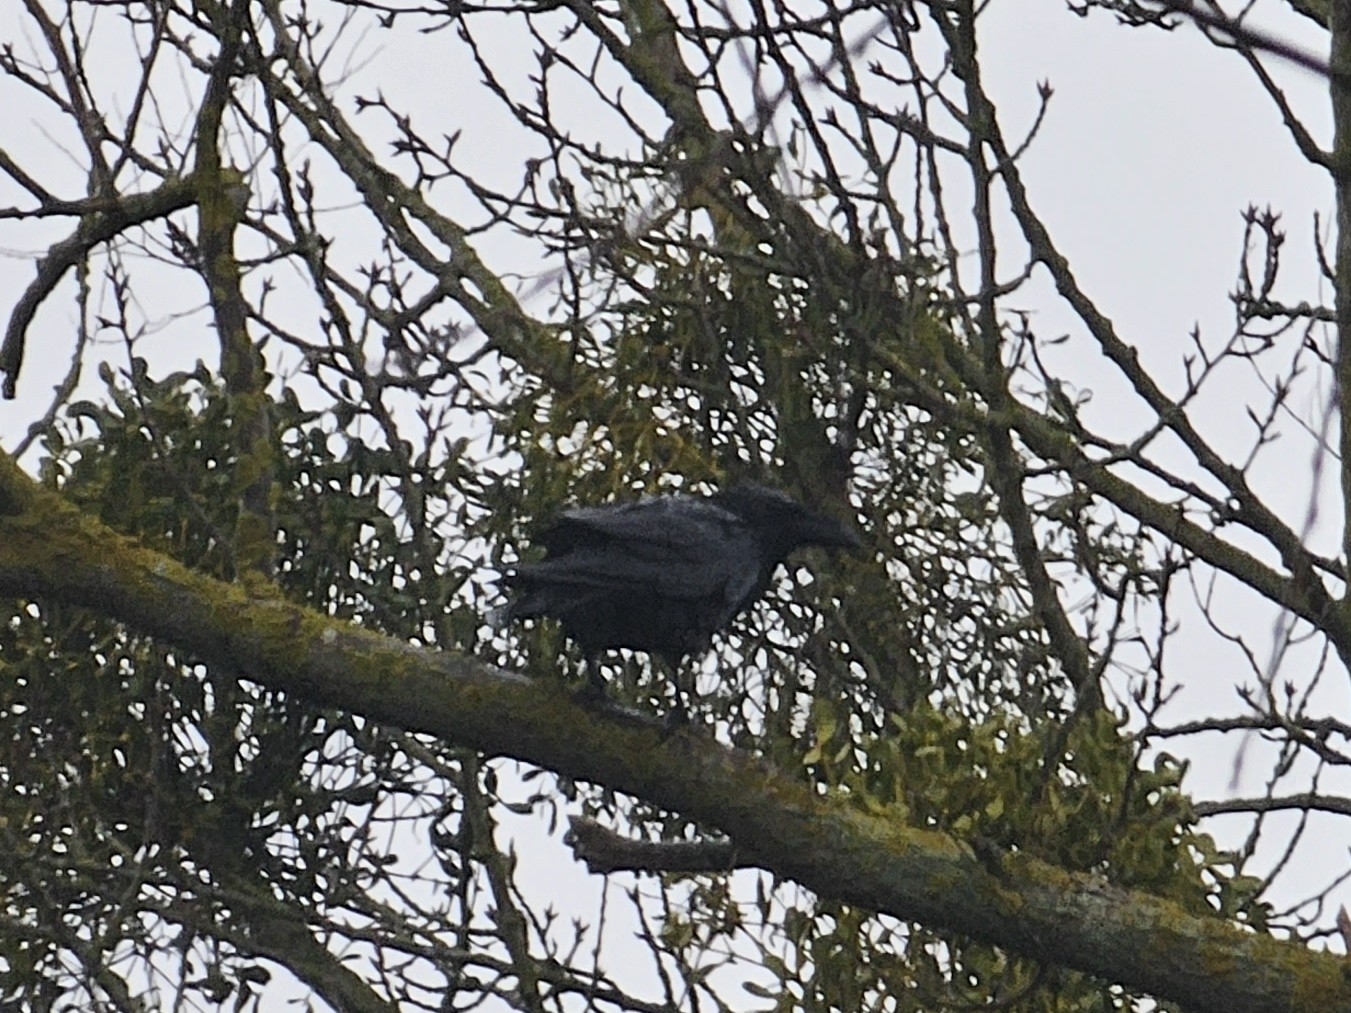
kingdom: Animalia
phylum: Chordata
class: Aves
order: Passeriformes
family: Corvidae
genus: Corvus
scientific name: Corvus corax
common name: Common raven
